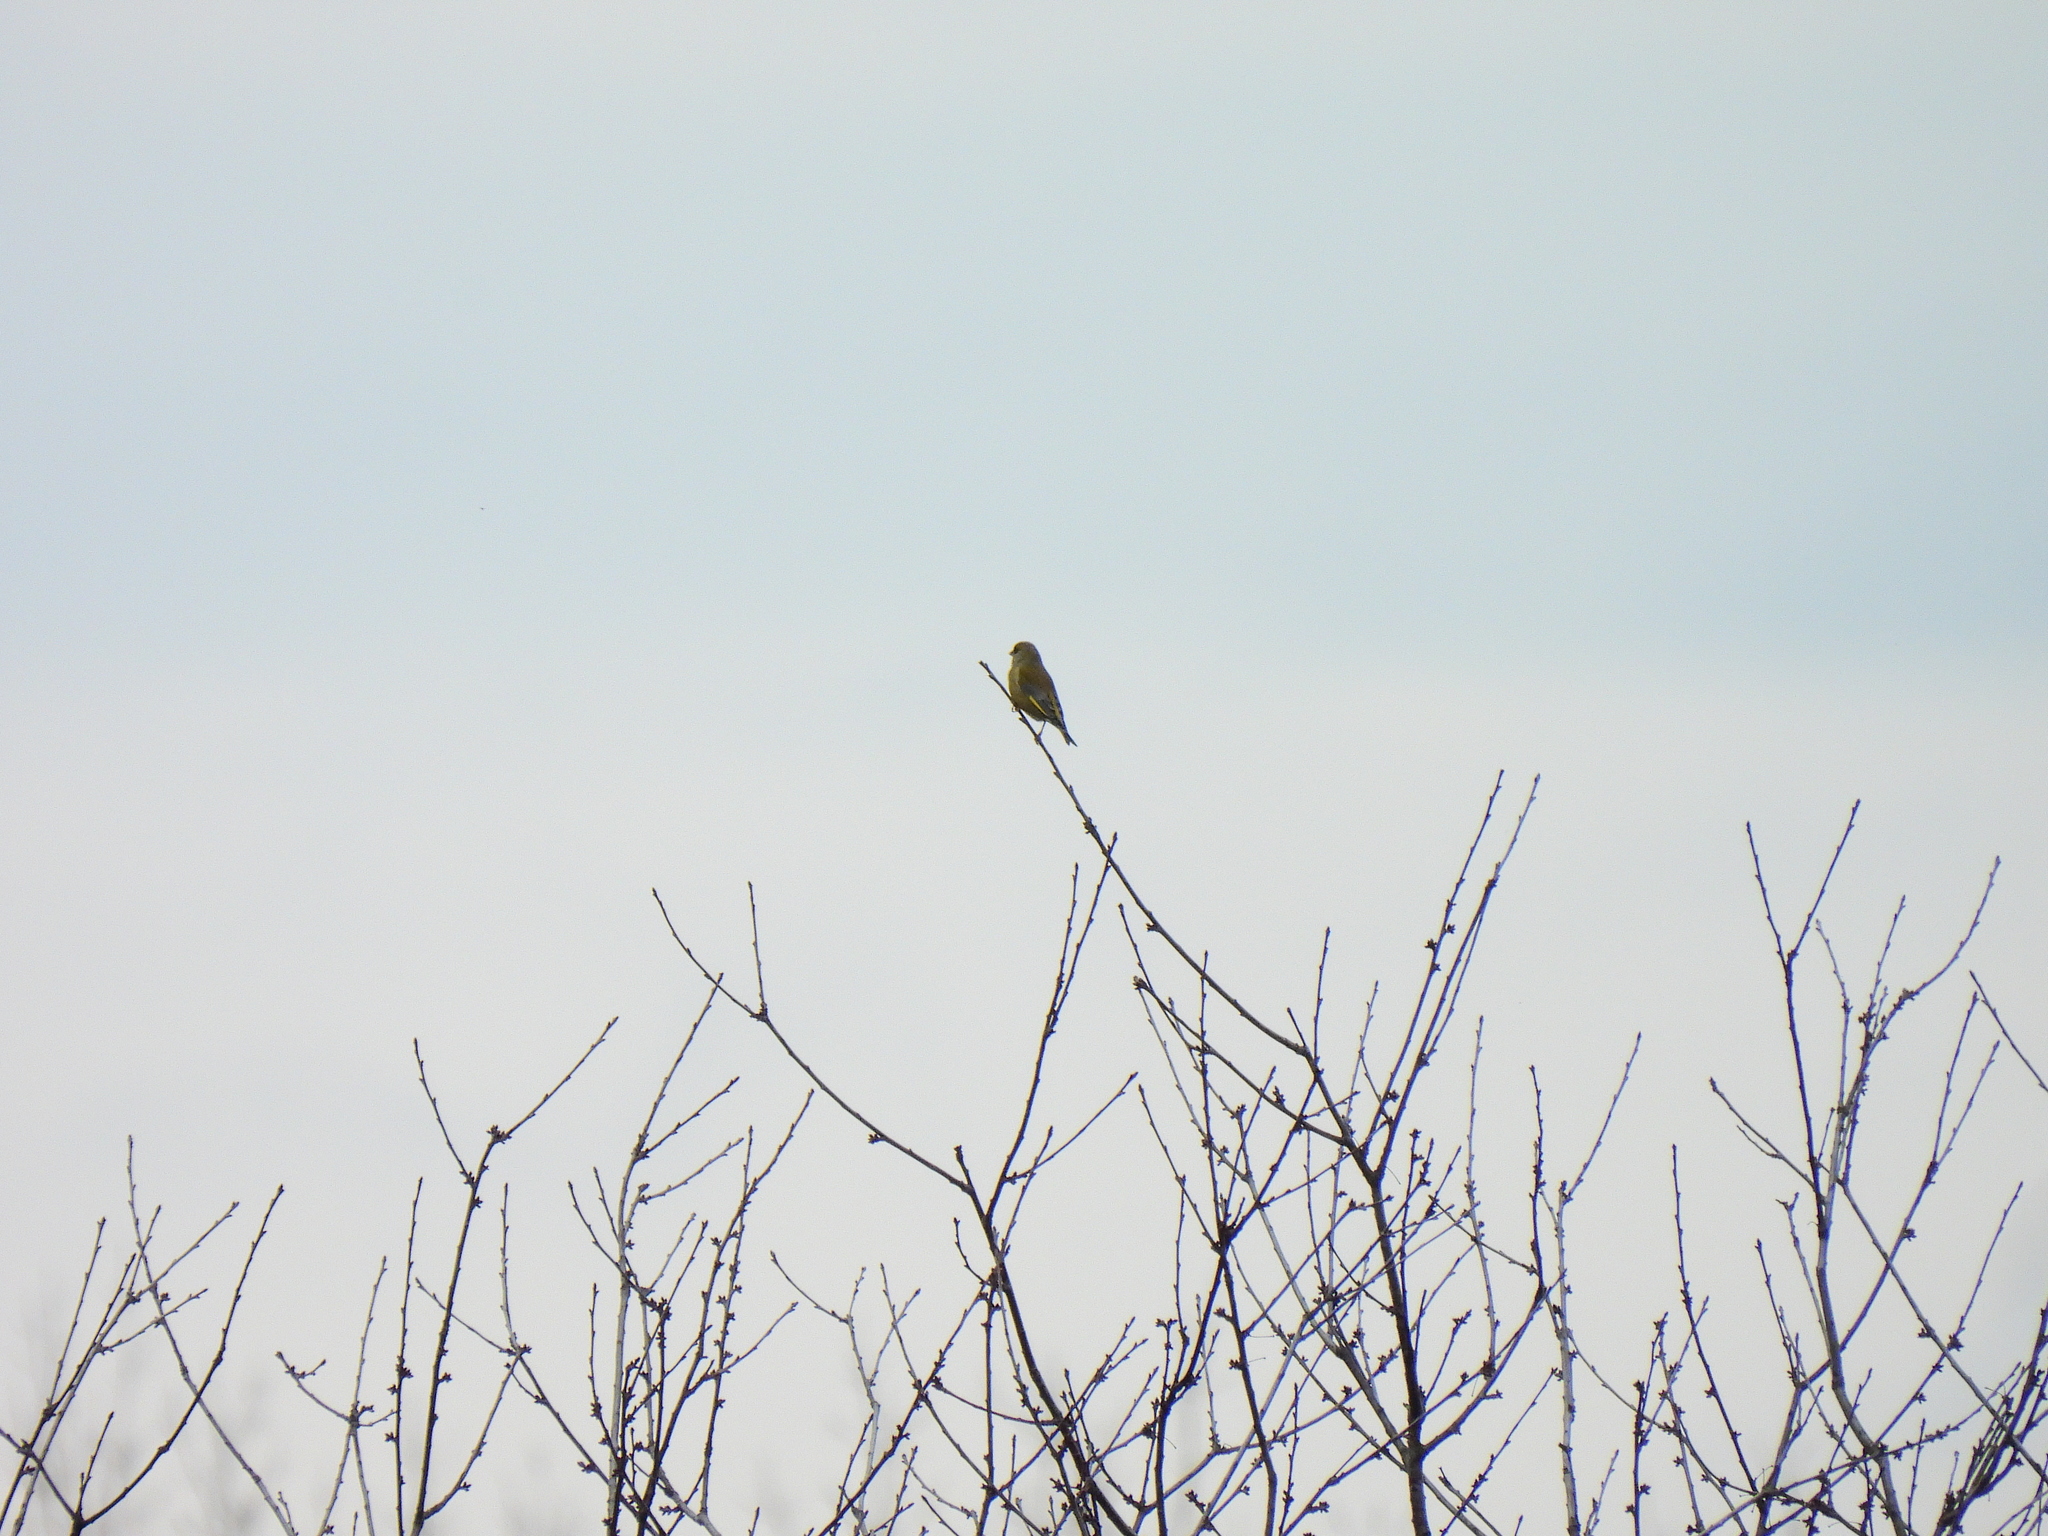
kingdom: Plantae
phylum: Tracheophyta
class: Liliopsida
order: Poales
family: Poaceae
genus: Chloris
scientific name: Chloris chloris
